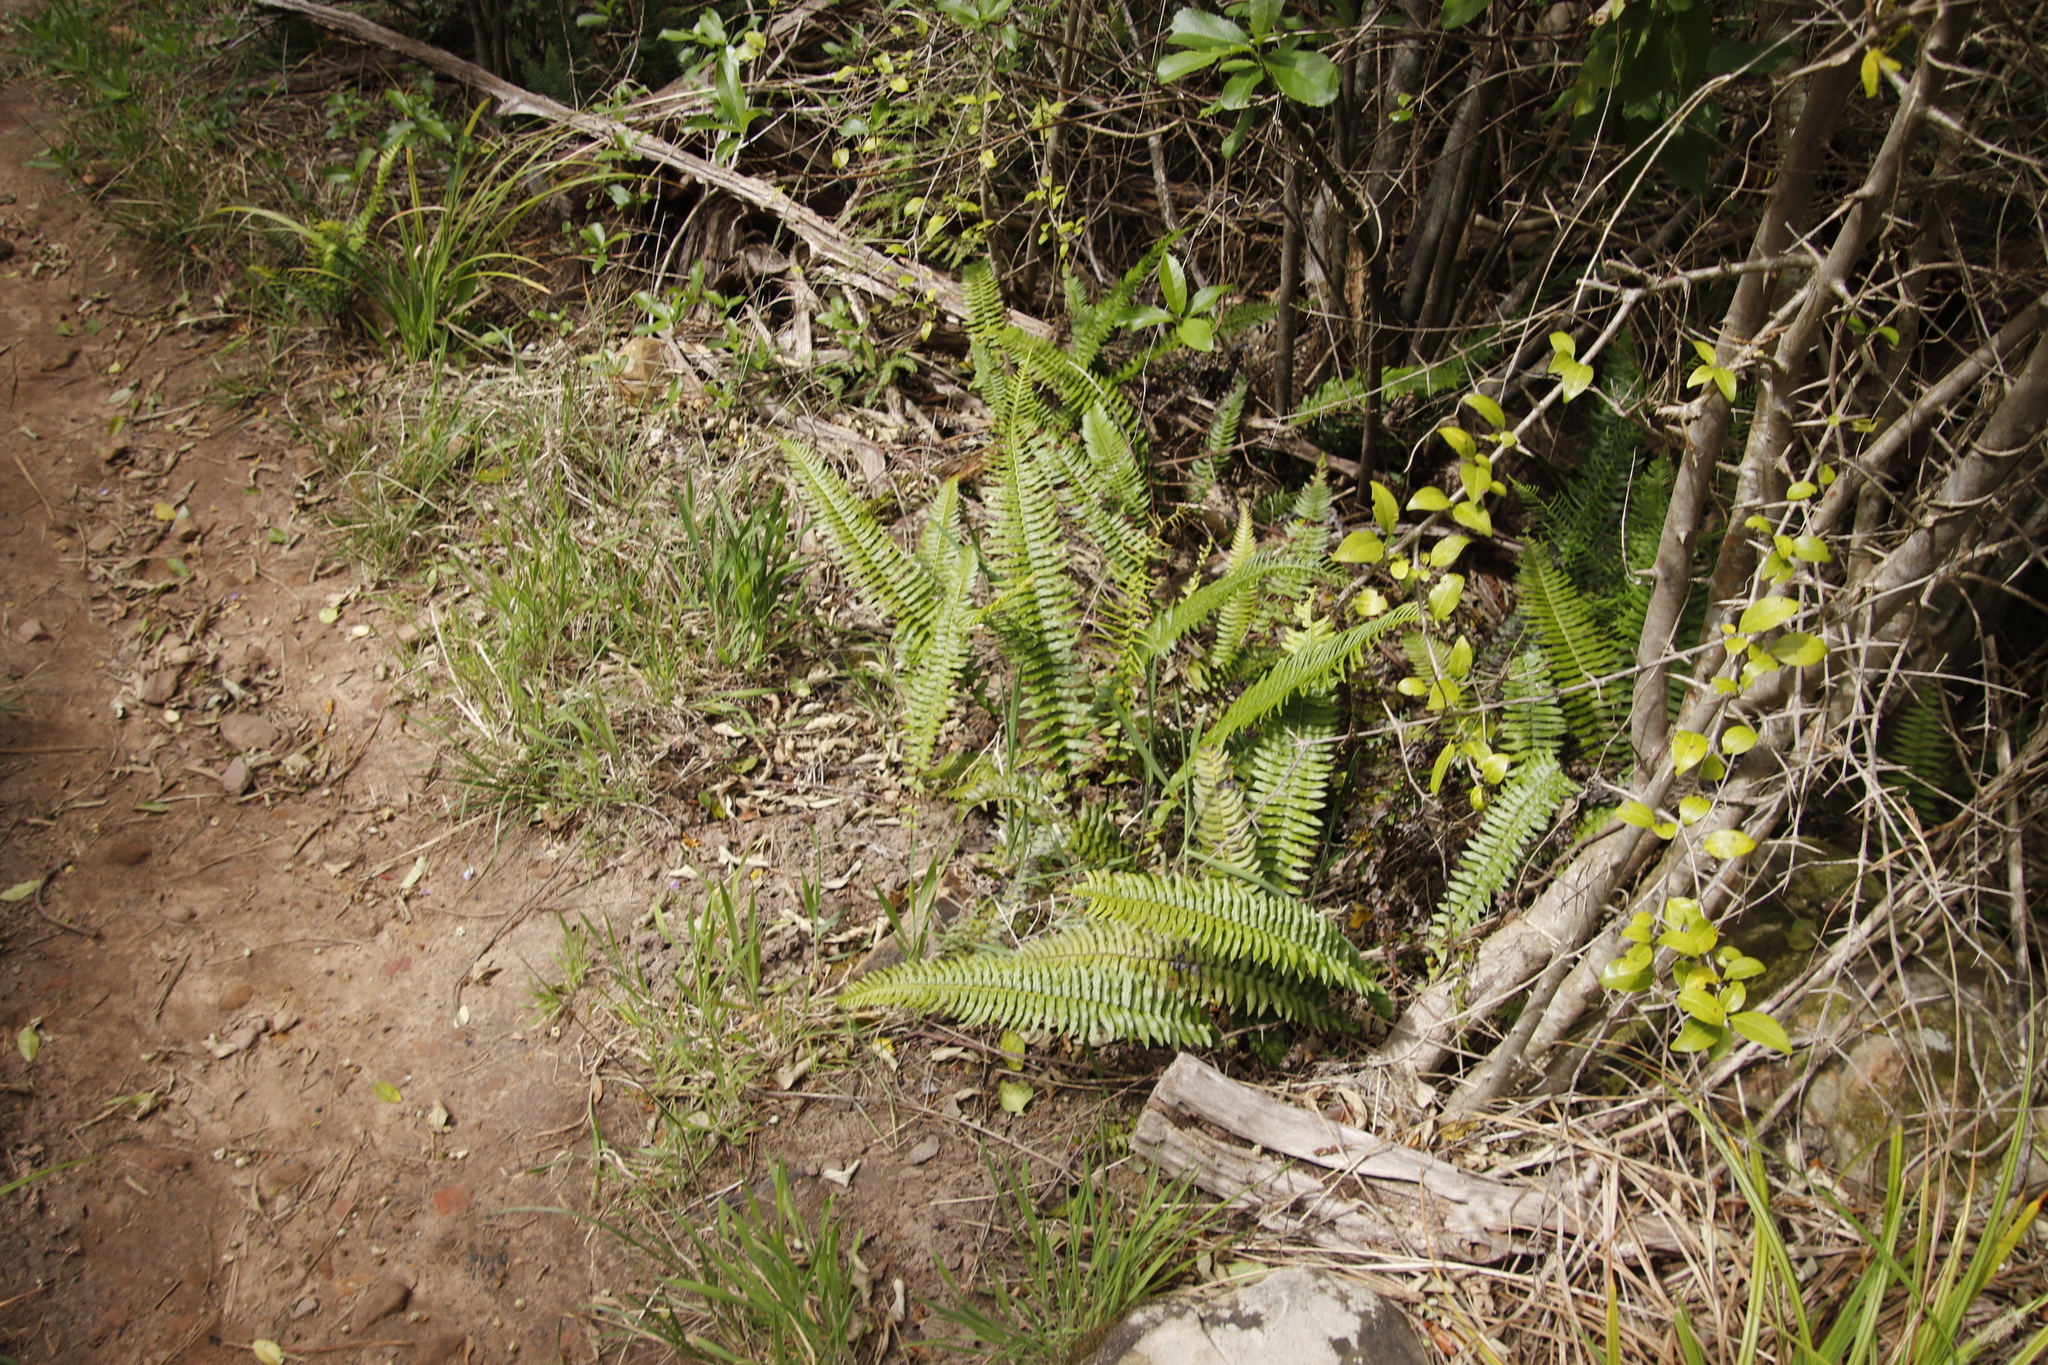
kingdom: Plantae
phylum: Tracheophyta
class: Polypodiopsida
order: Polypodiales
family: Blechnaceae
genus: Blechnum
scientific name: Blechnum punctulatum
